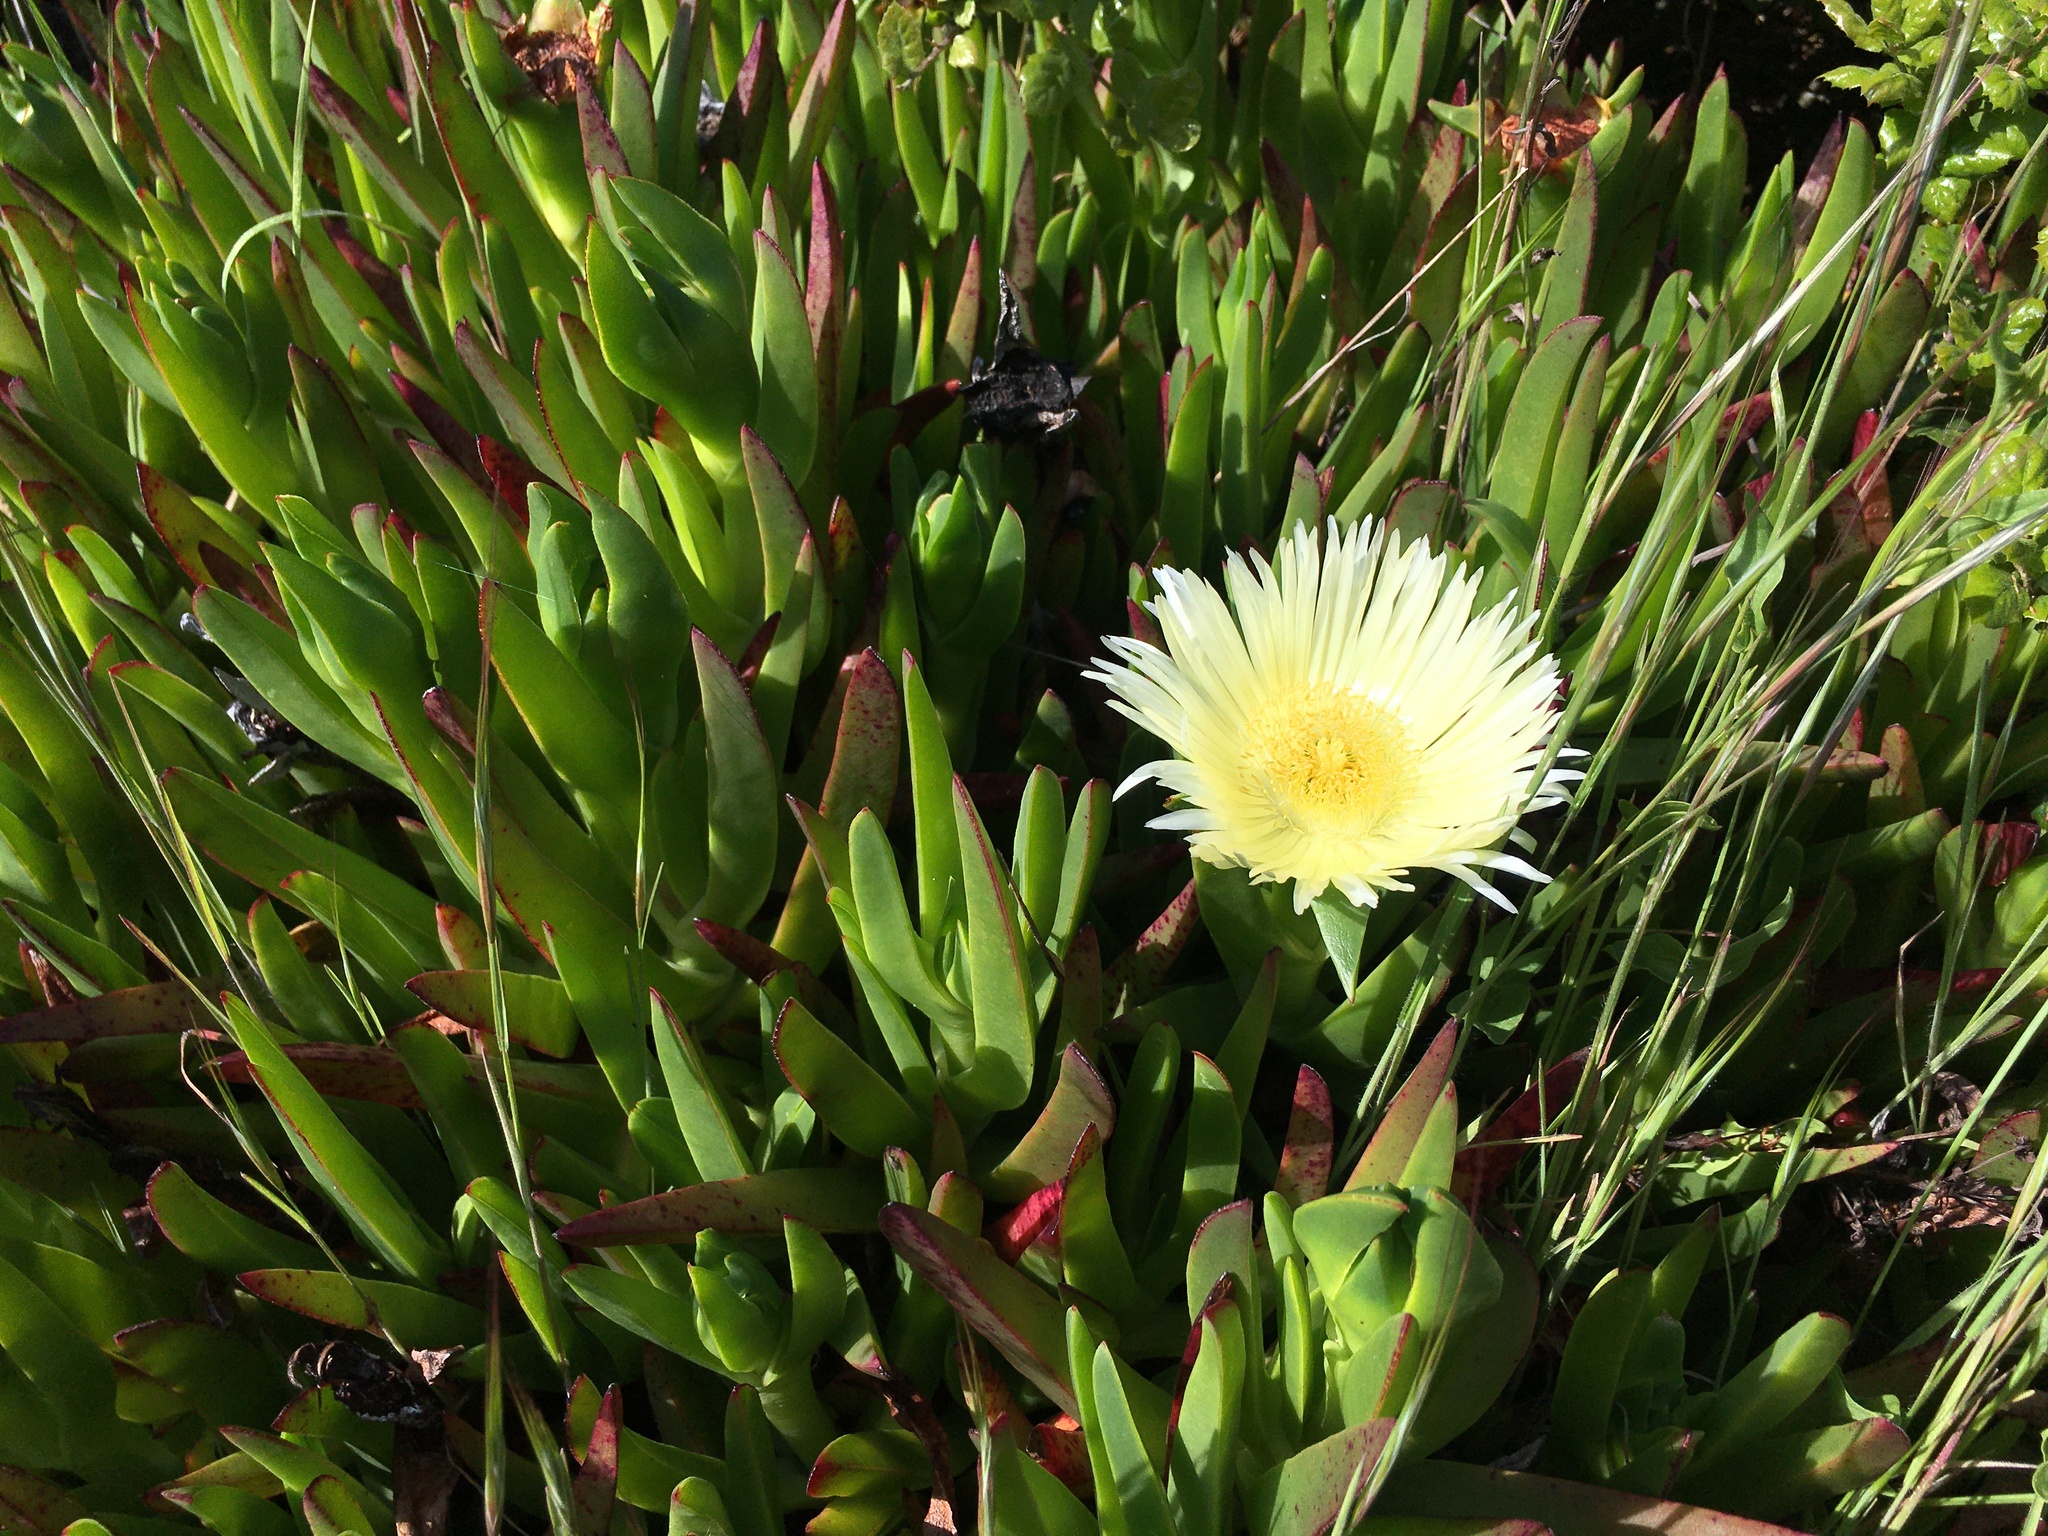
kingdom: Plantae
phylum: Tracheophyta
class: Magnoliopsida
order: Caryophyllales
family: Aizoaceae
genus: Carpobrotus
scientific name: Carpobrotus edulis
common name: Hottentot-fig
